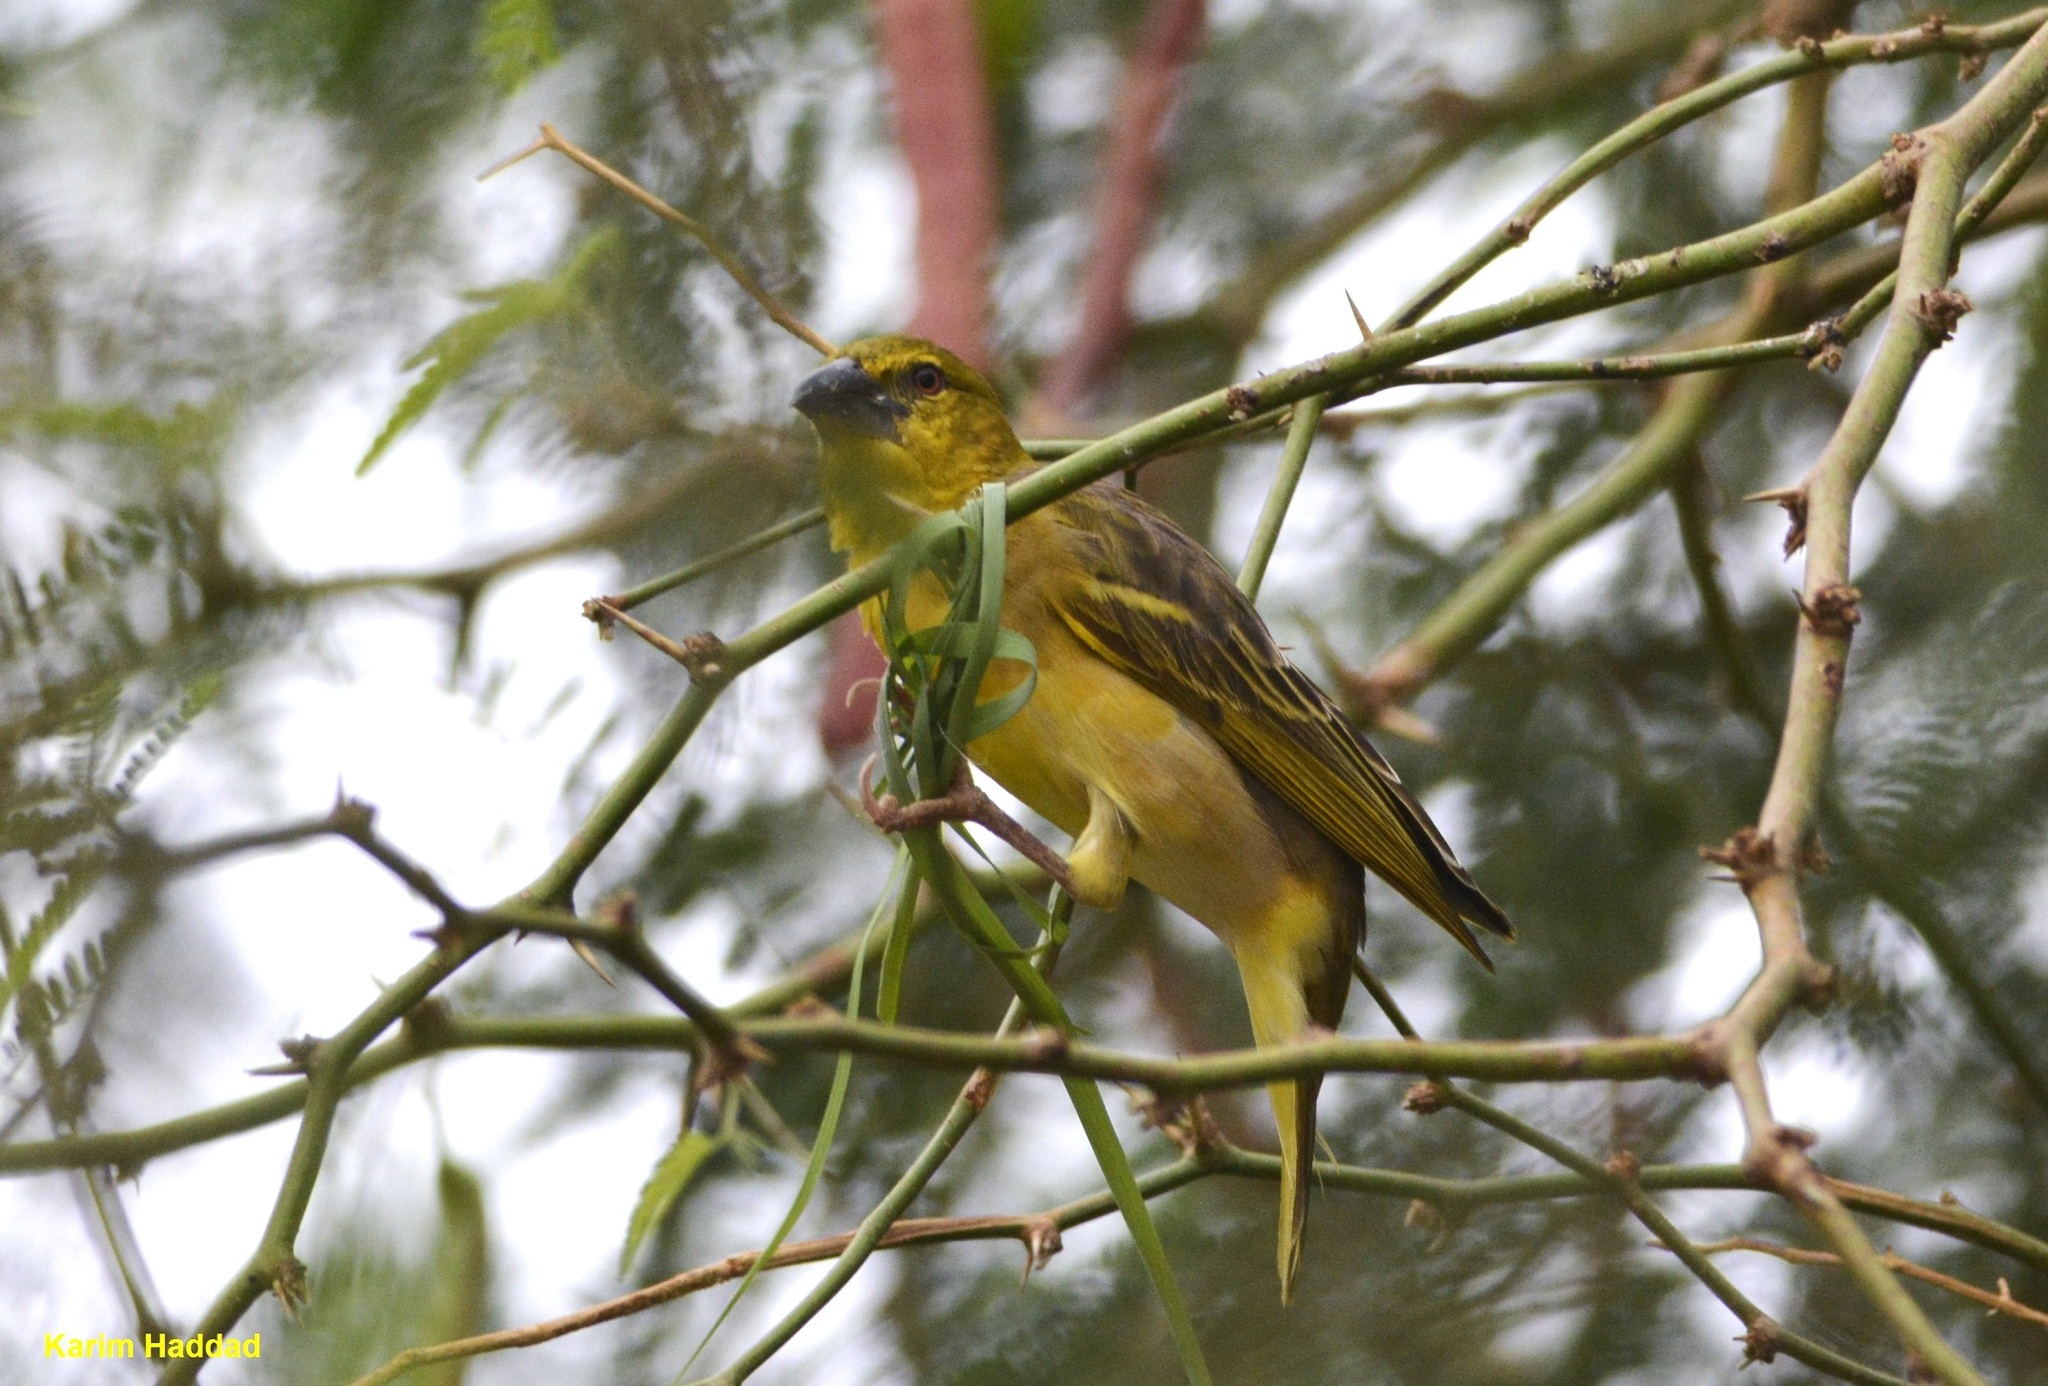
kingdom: Animalia
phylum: Chordata
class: Aves
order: Passeriformes
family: Ploceidae
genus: Ploceus
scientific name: Ploceus cucullatus
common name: Village weaver
